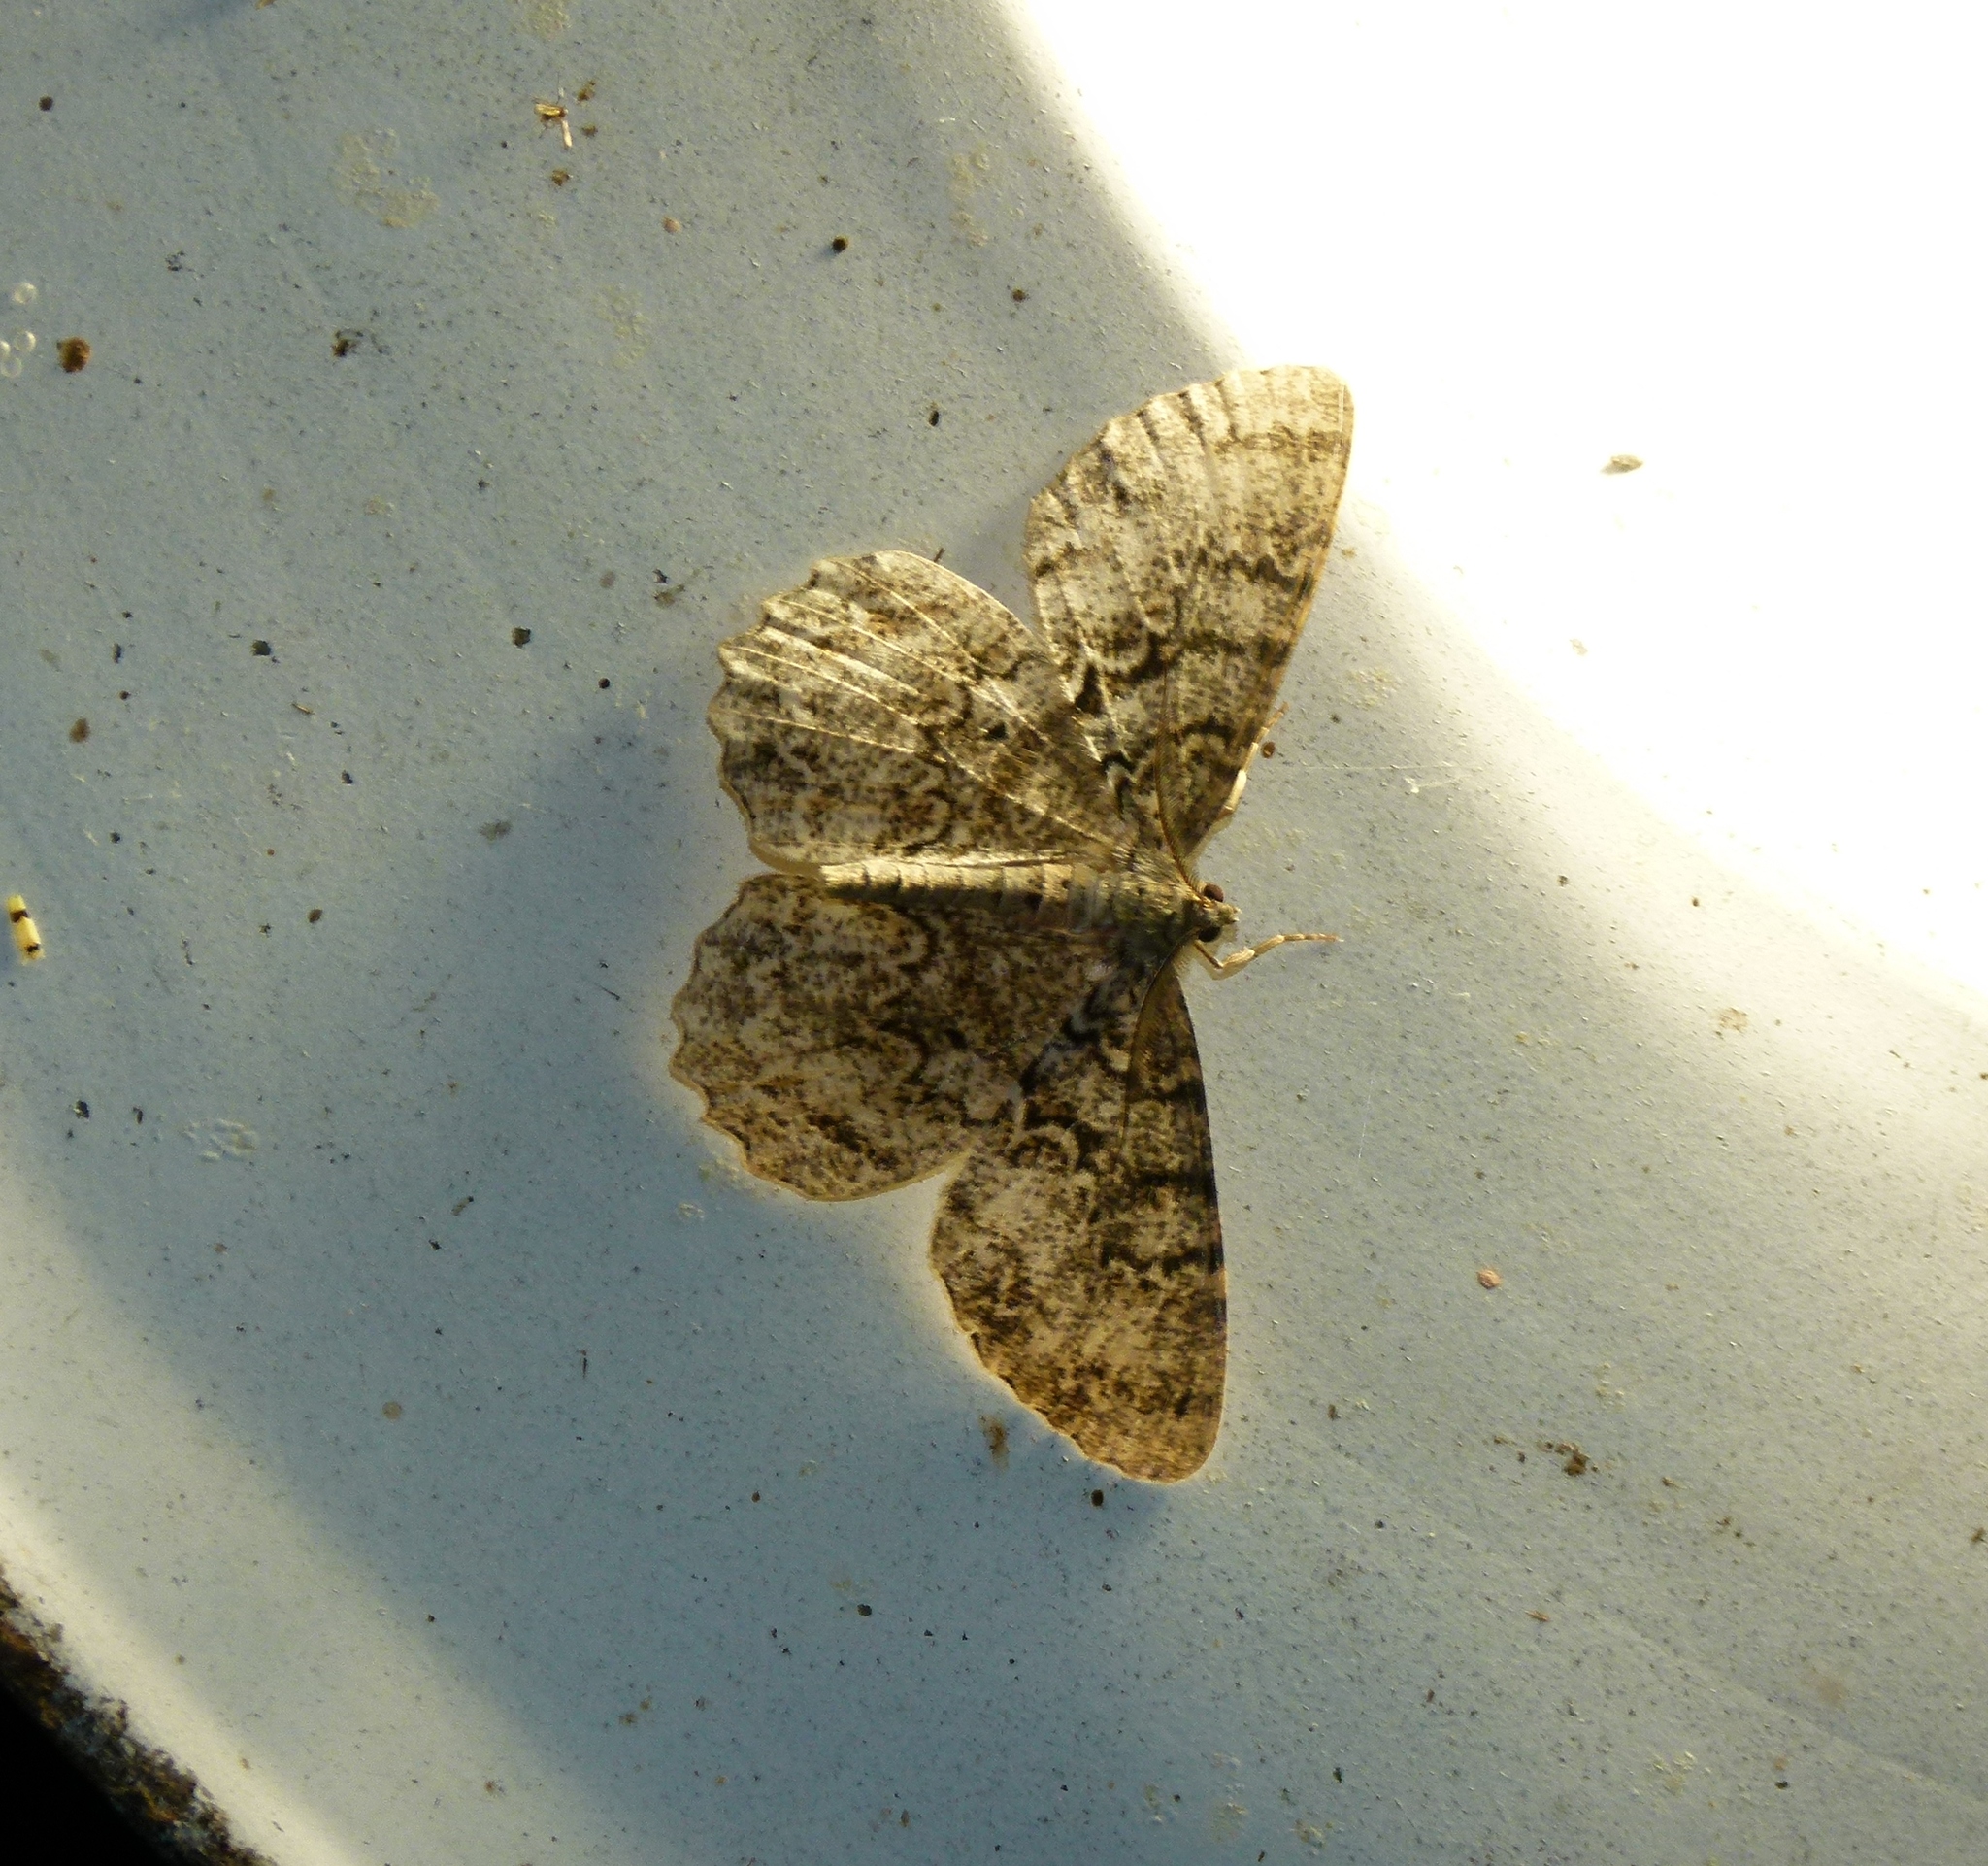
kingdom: Animalia
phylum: Arthropoda
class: Insecta
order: Lepidoptera
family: Geometridae
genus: Epimecis
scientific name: Epimecis hortaria
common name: Tulip-tree beauty
